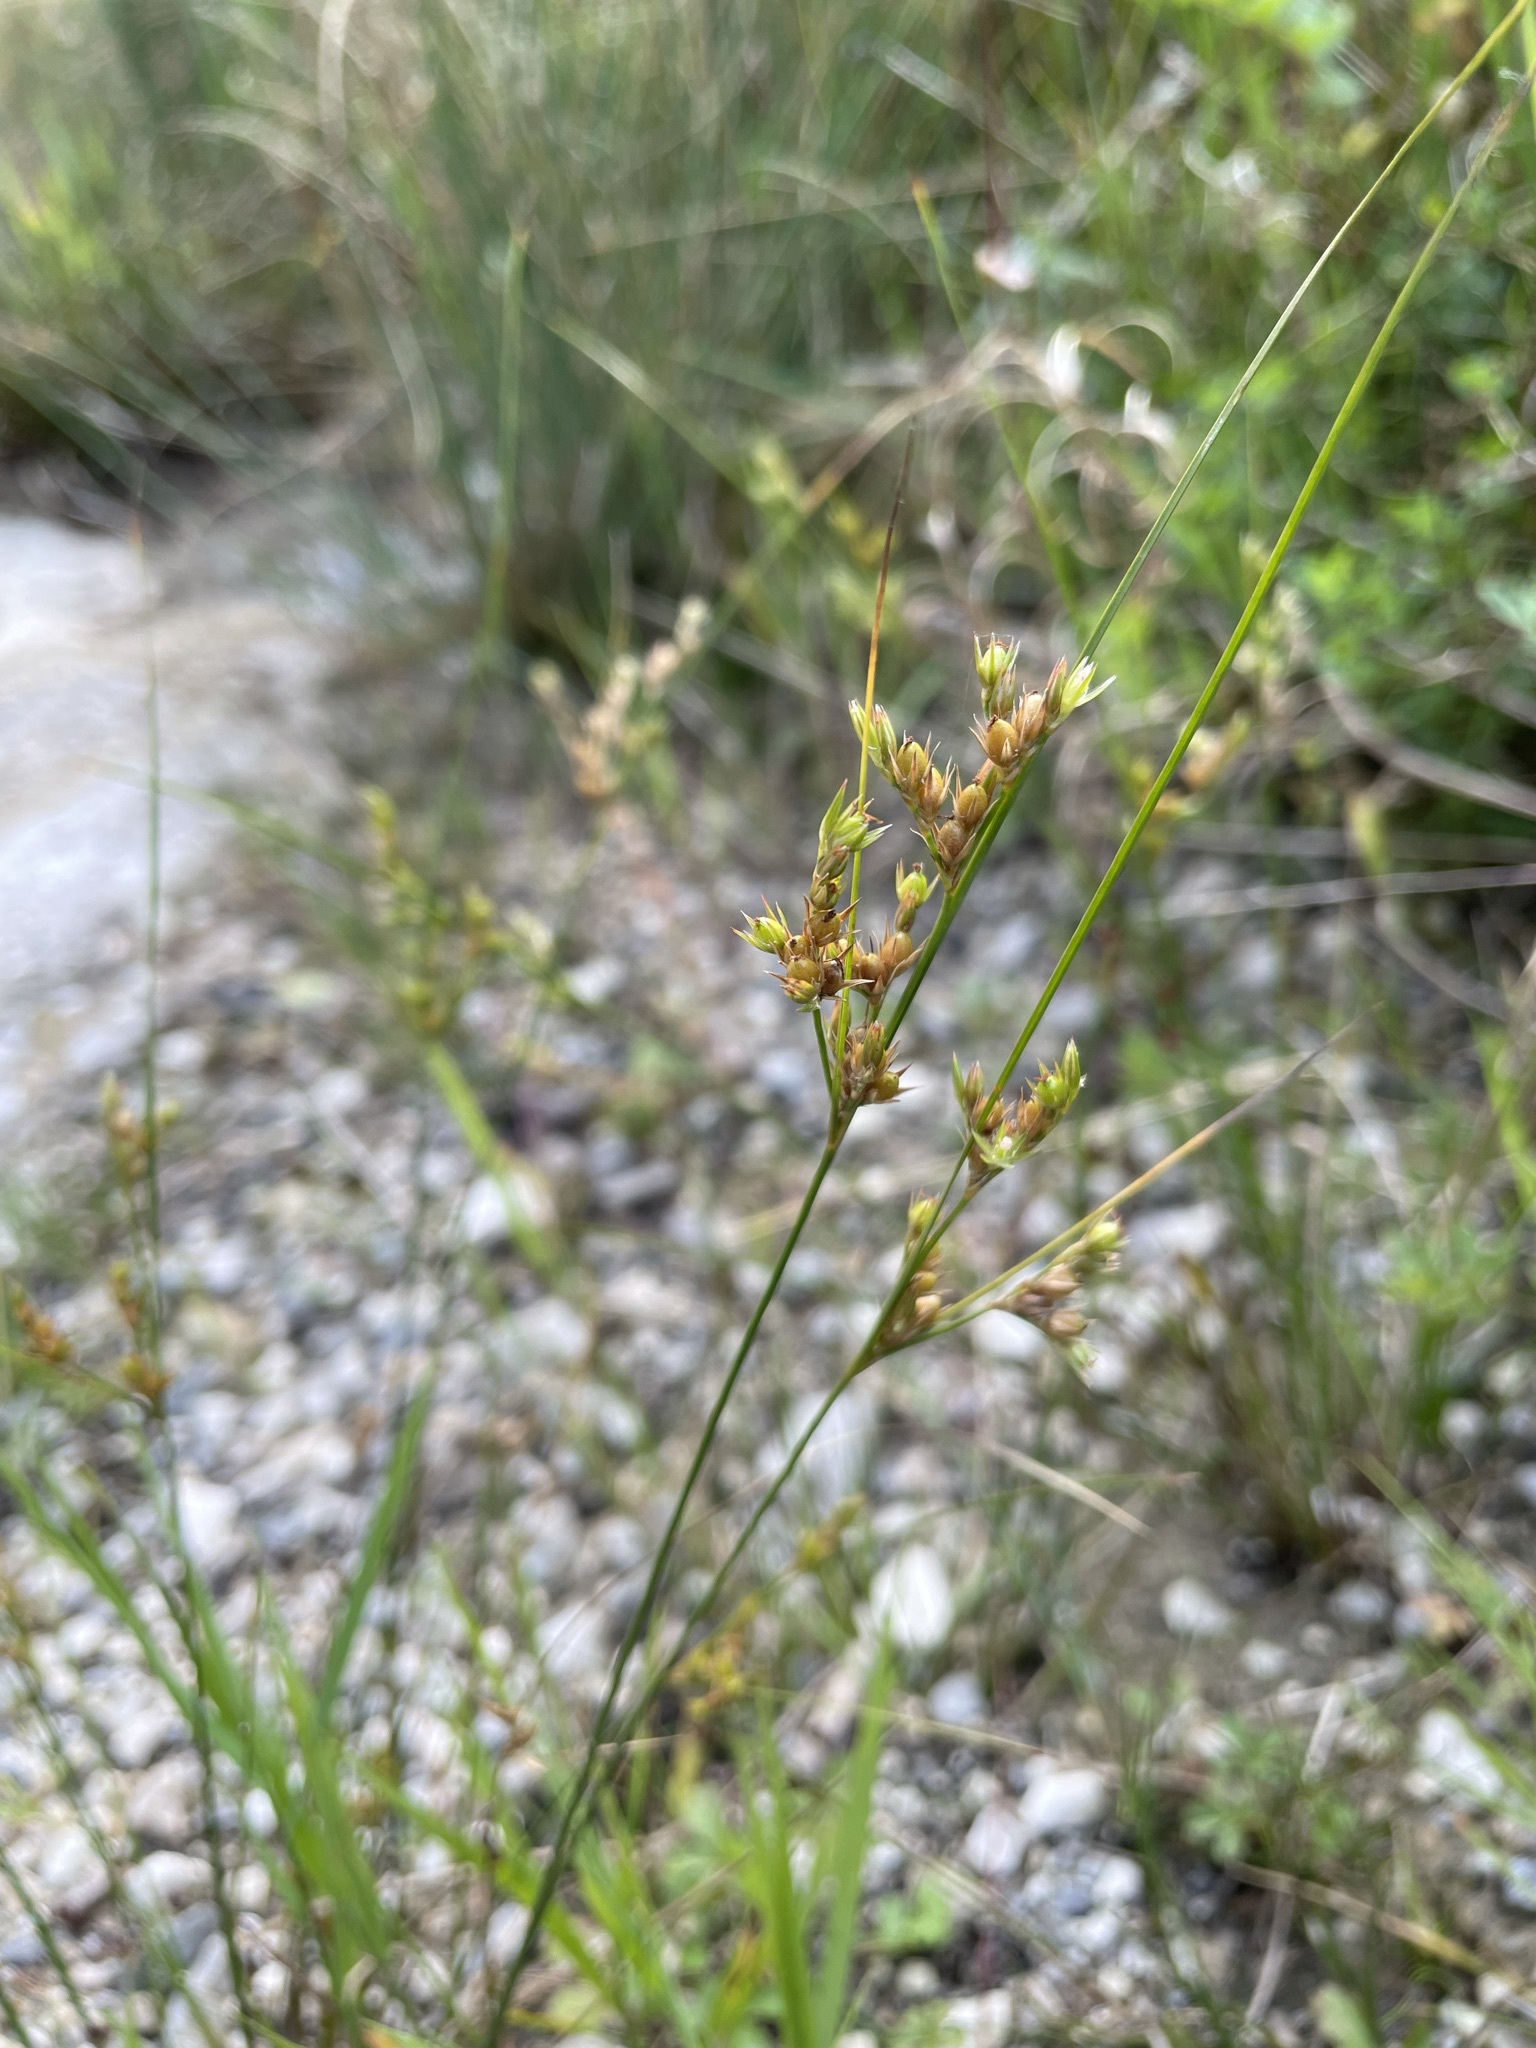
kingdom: Plantae
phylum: Tracheophyta
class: Liliopsida
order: Poales
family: Juncaceae
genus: Juncus
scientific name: Juncus tenuis
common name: Slender rush
